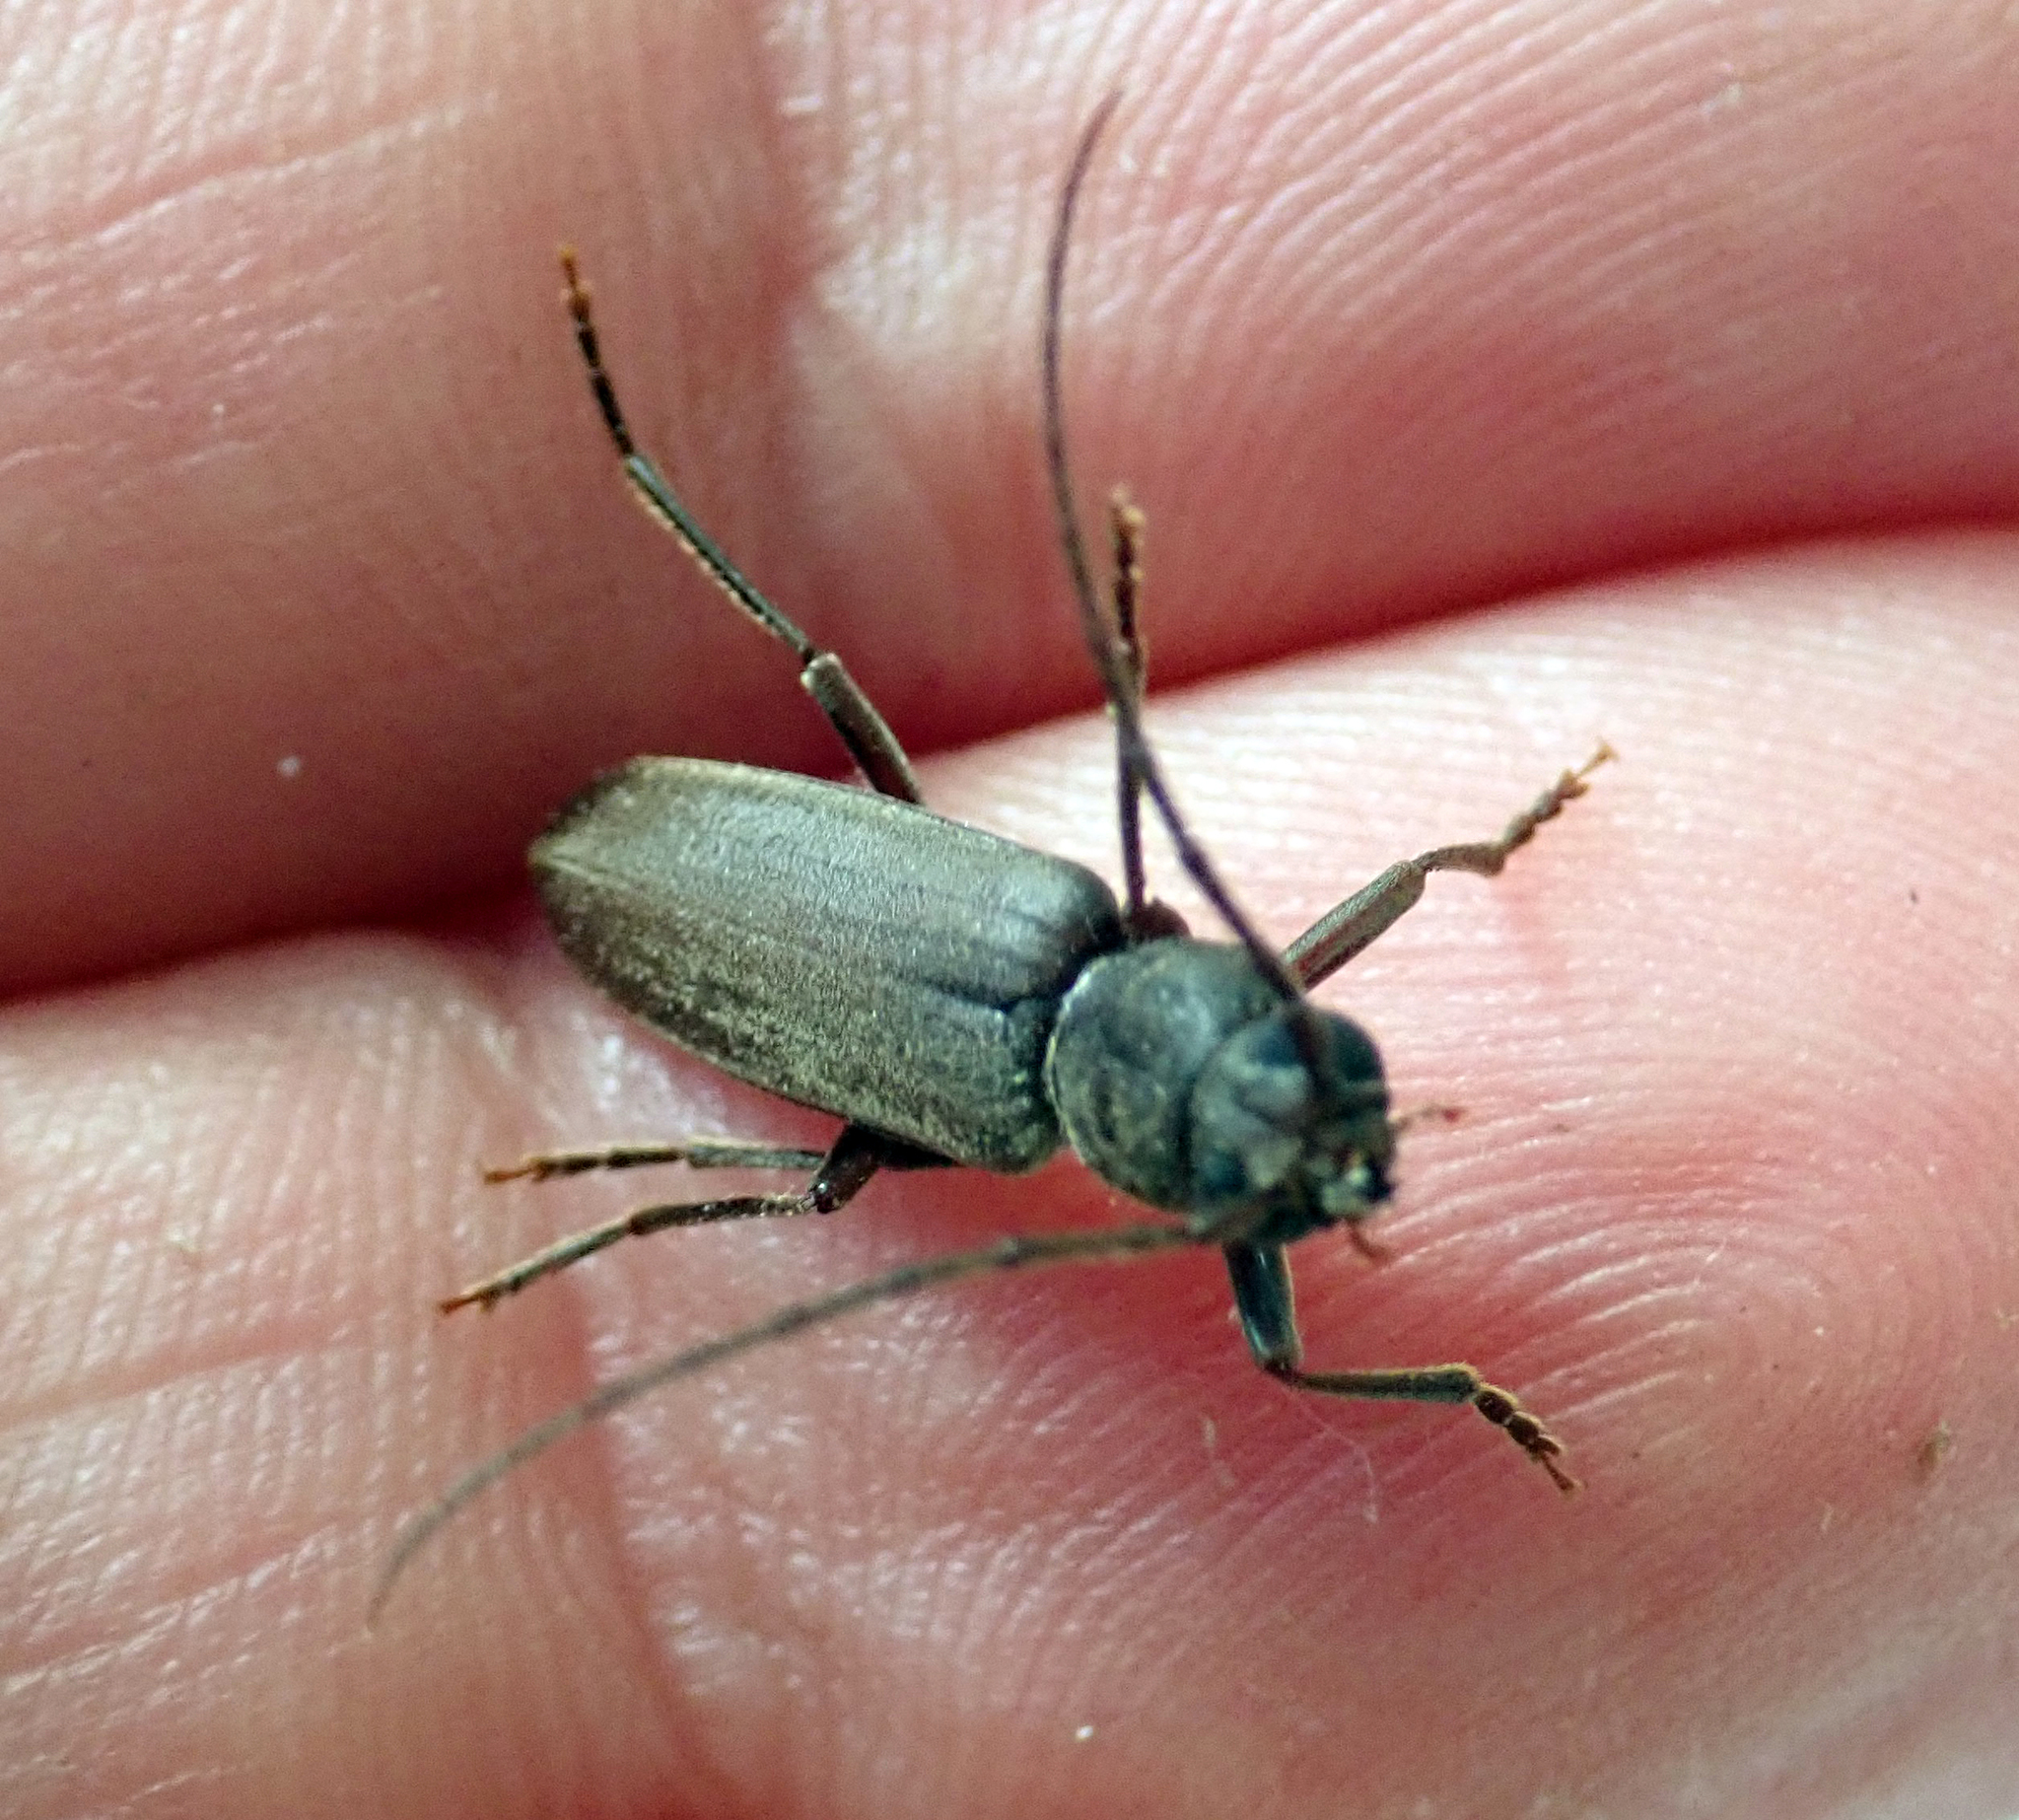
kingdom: Animalia
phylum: Arthropoda
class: Insecta
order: Coleoptera
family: Cerambycidae
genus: Arhopalus
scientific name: Arhopalus ferus
